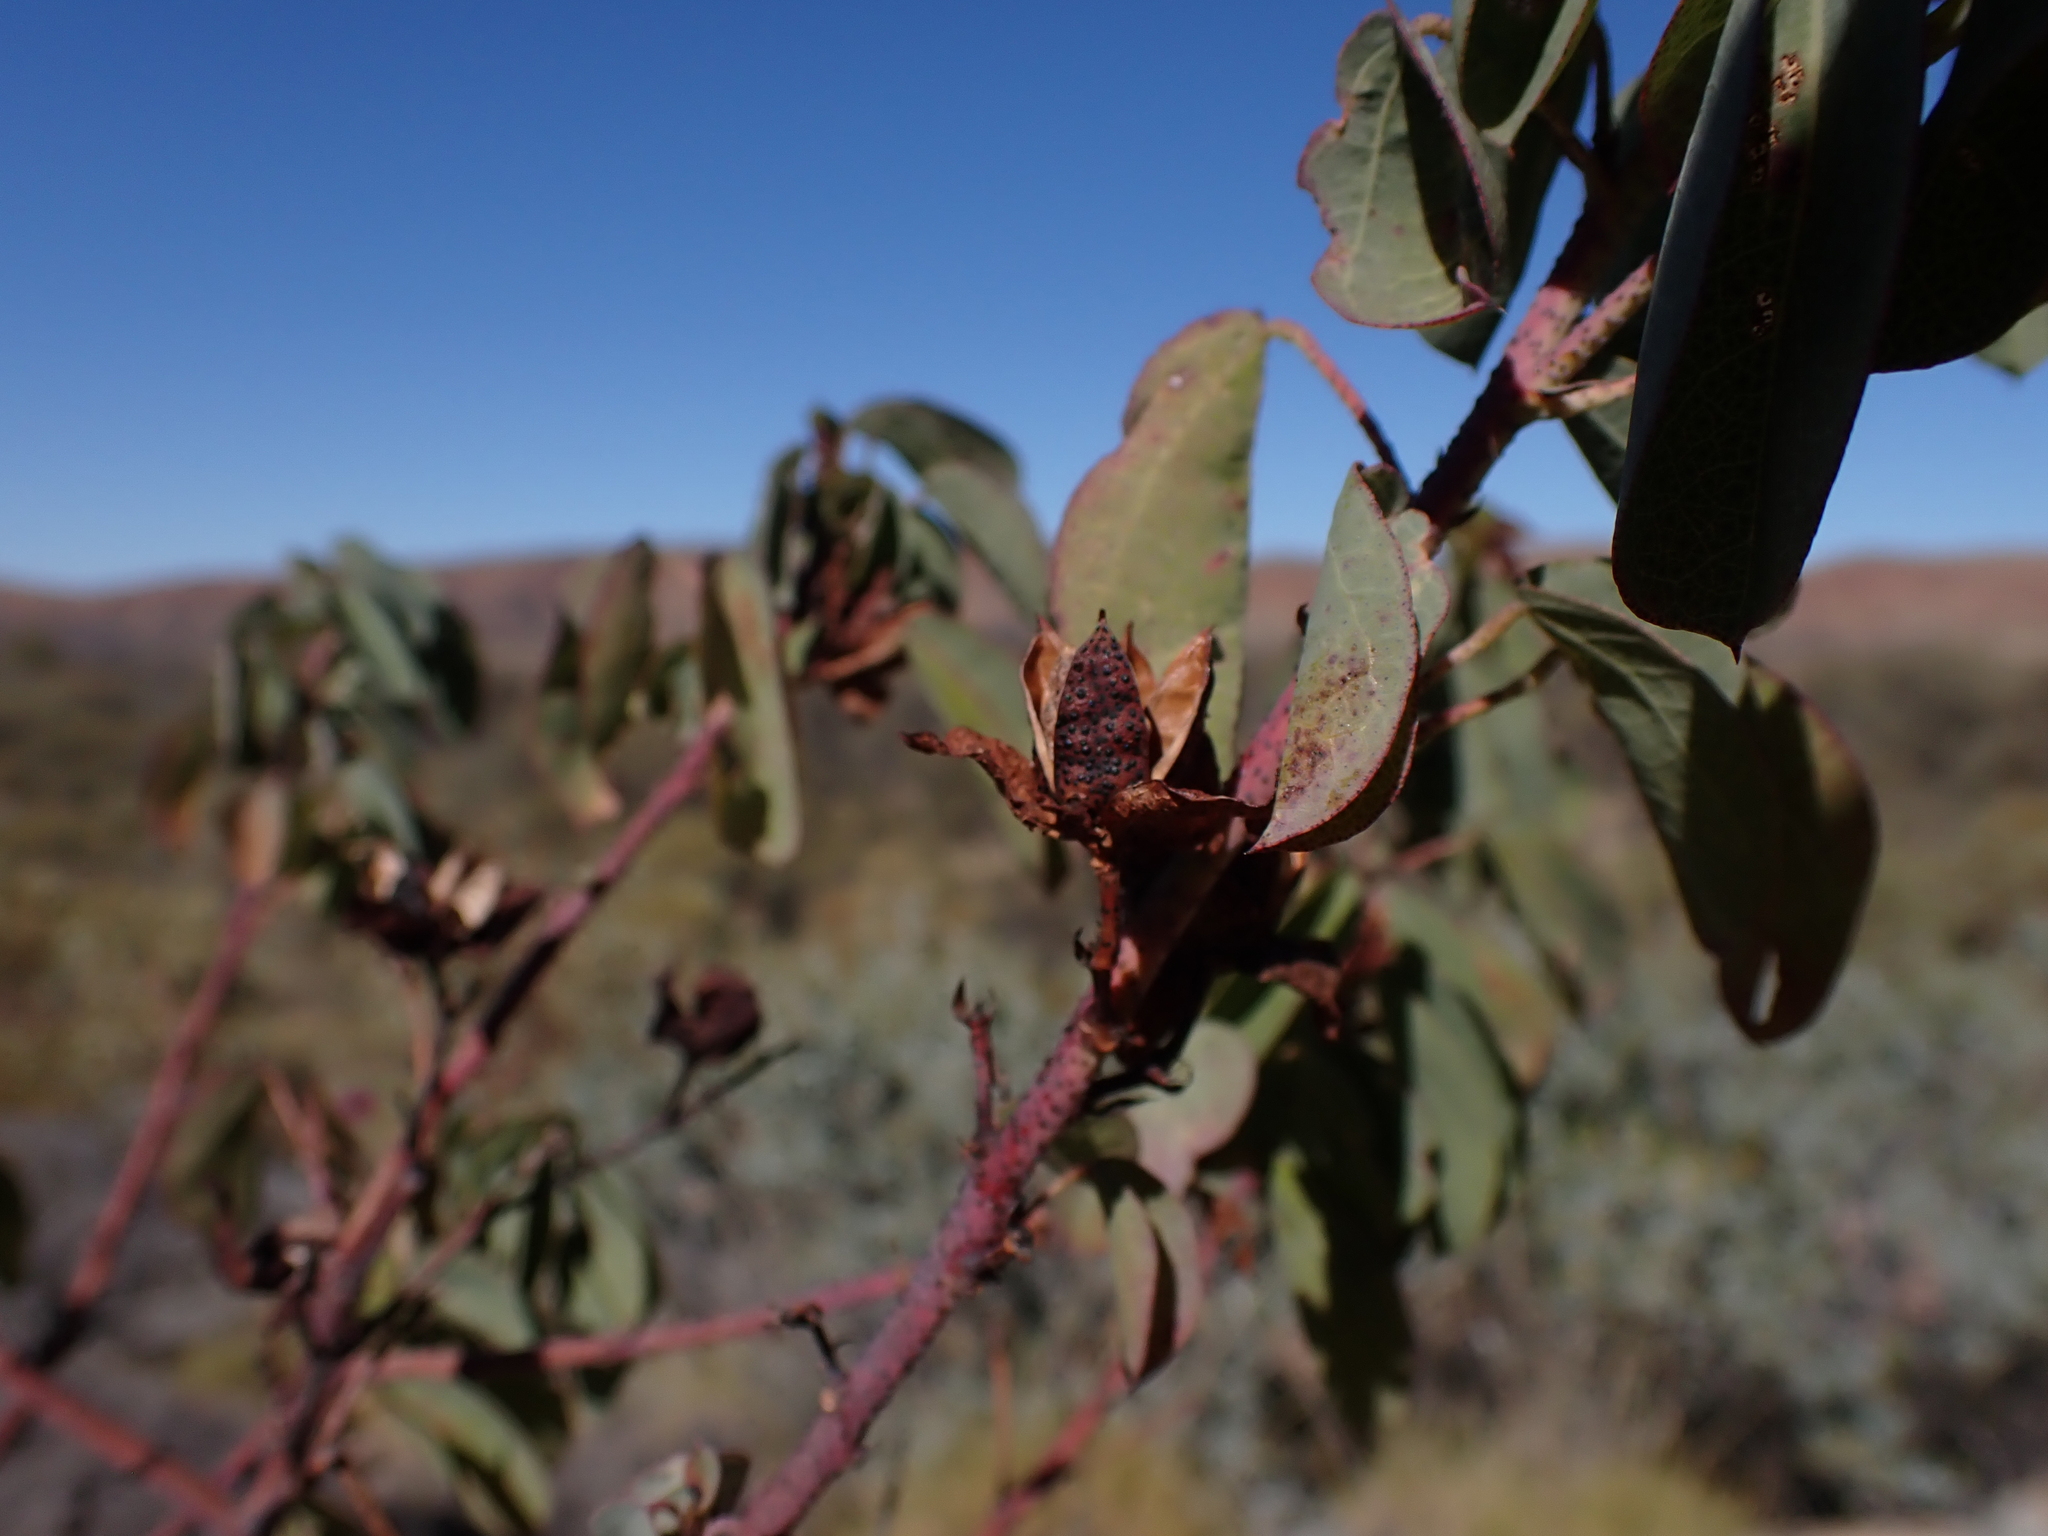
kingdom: Plantae
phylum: Tracheophyta
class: Magnoliopsida
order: Malvales
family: Malvaceae
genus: Gossypium
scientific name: Gossypium sturtianum
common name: Sturt's desert-rose
